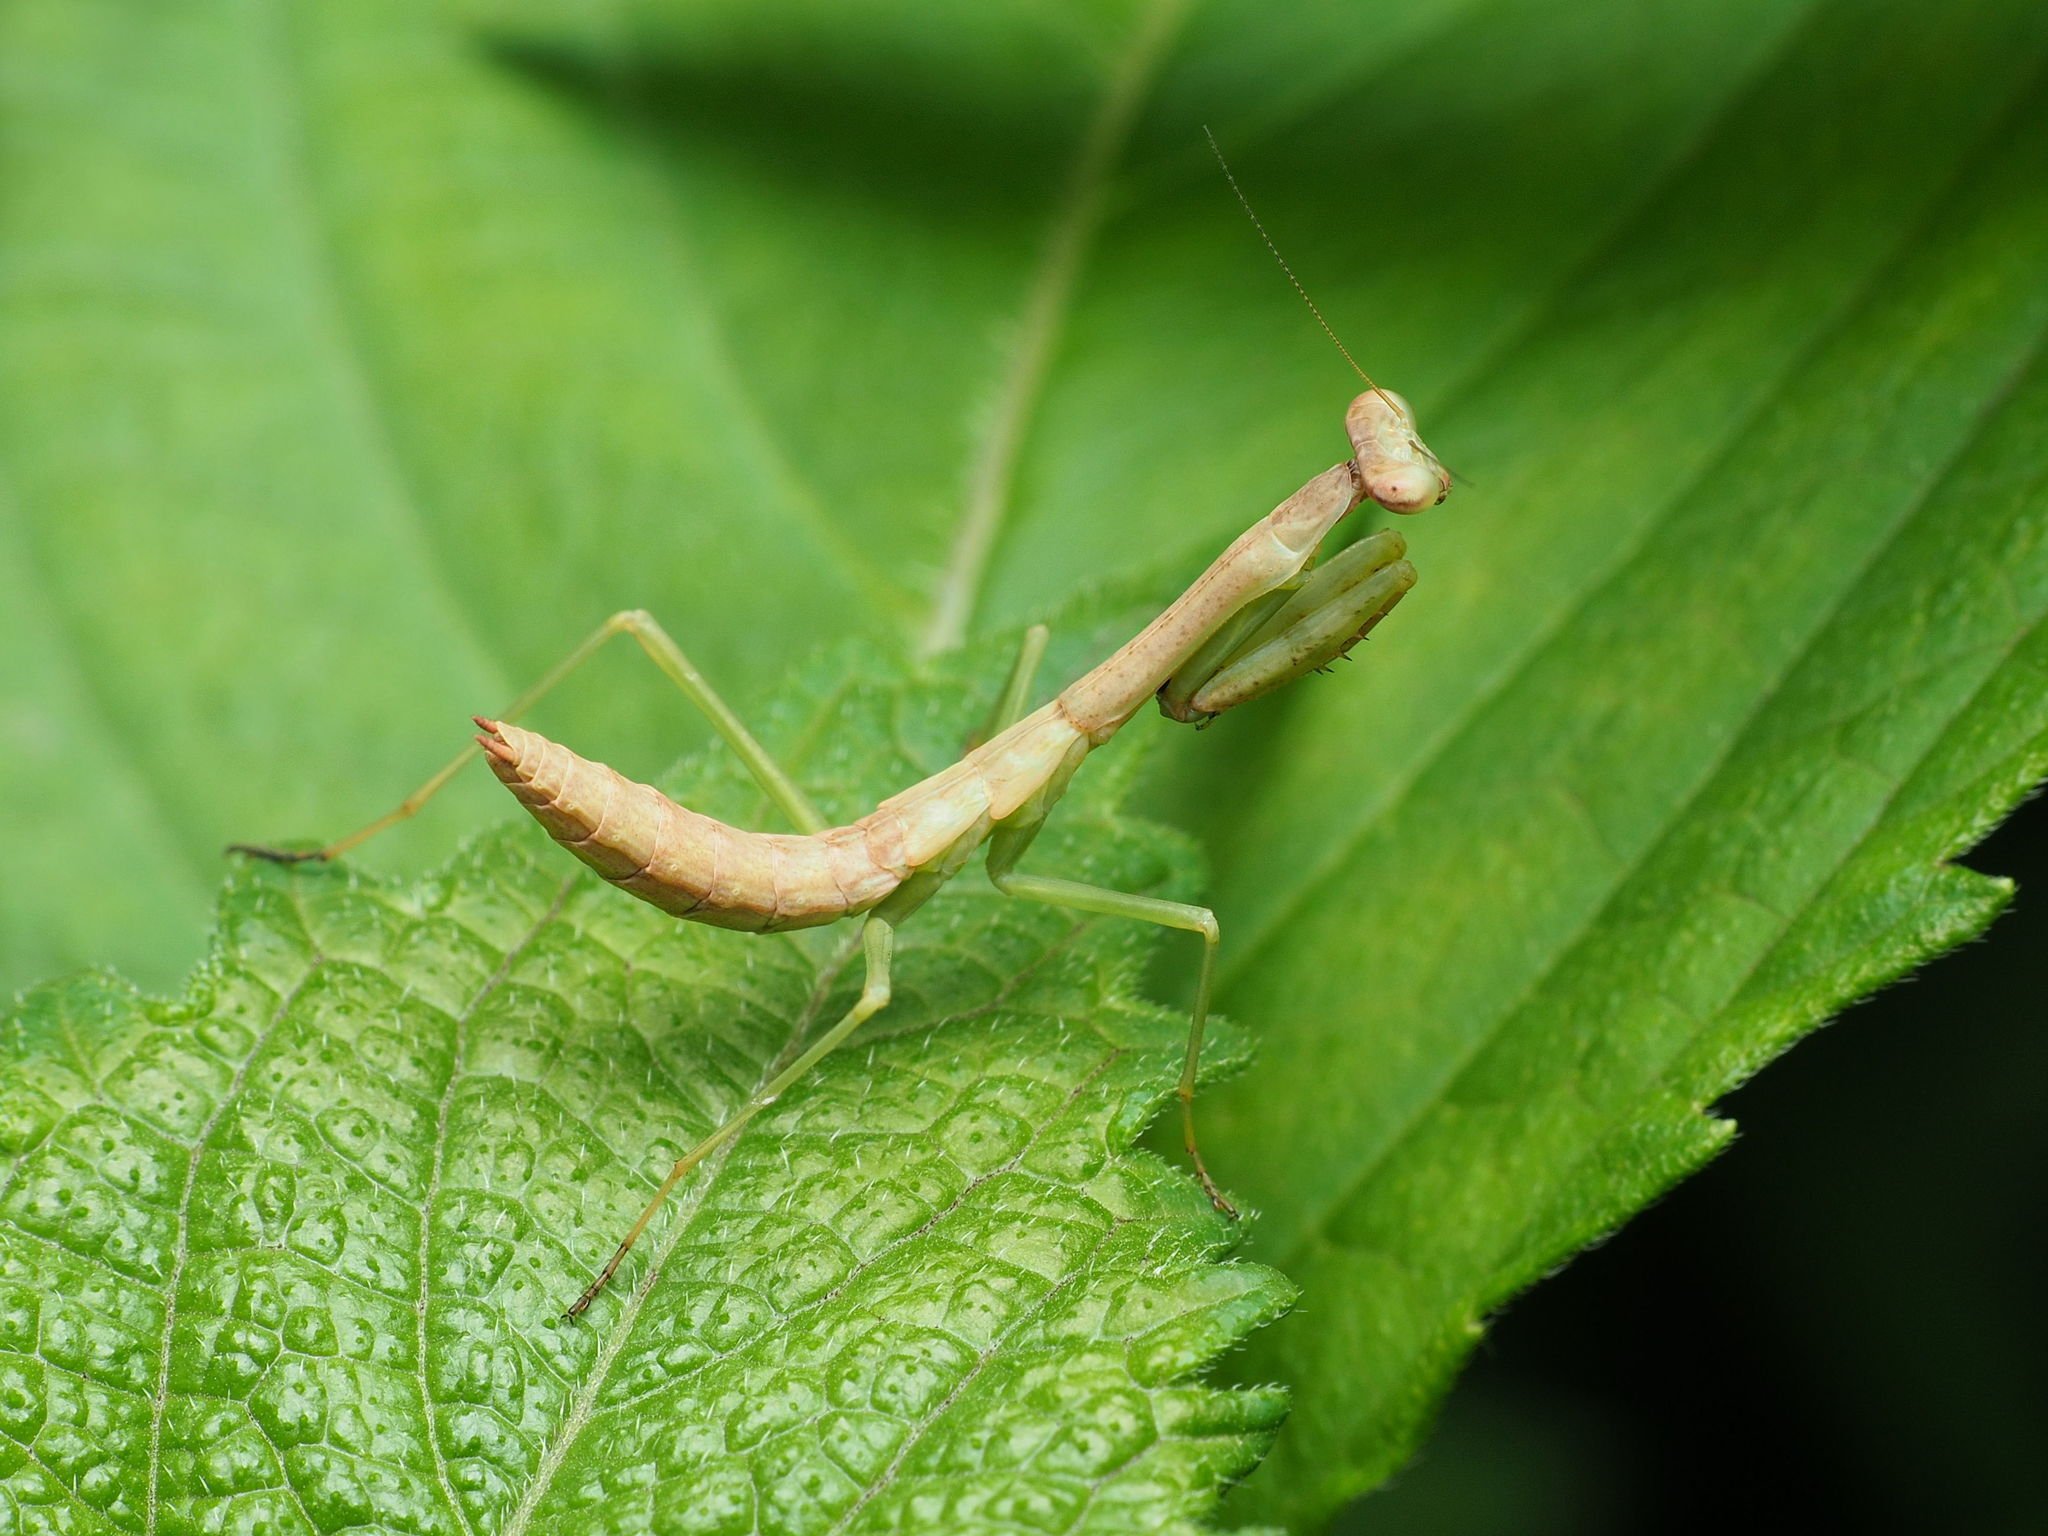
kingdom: Animalia
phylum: Arthropoda
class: Insecta
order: Mantodea
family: Mantidae
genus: Stagmomantis
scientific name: Stagmomantis carolina
